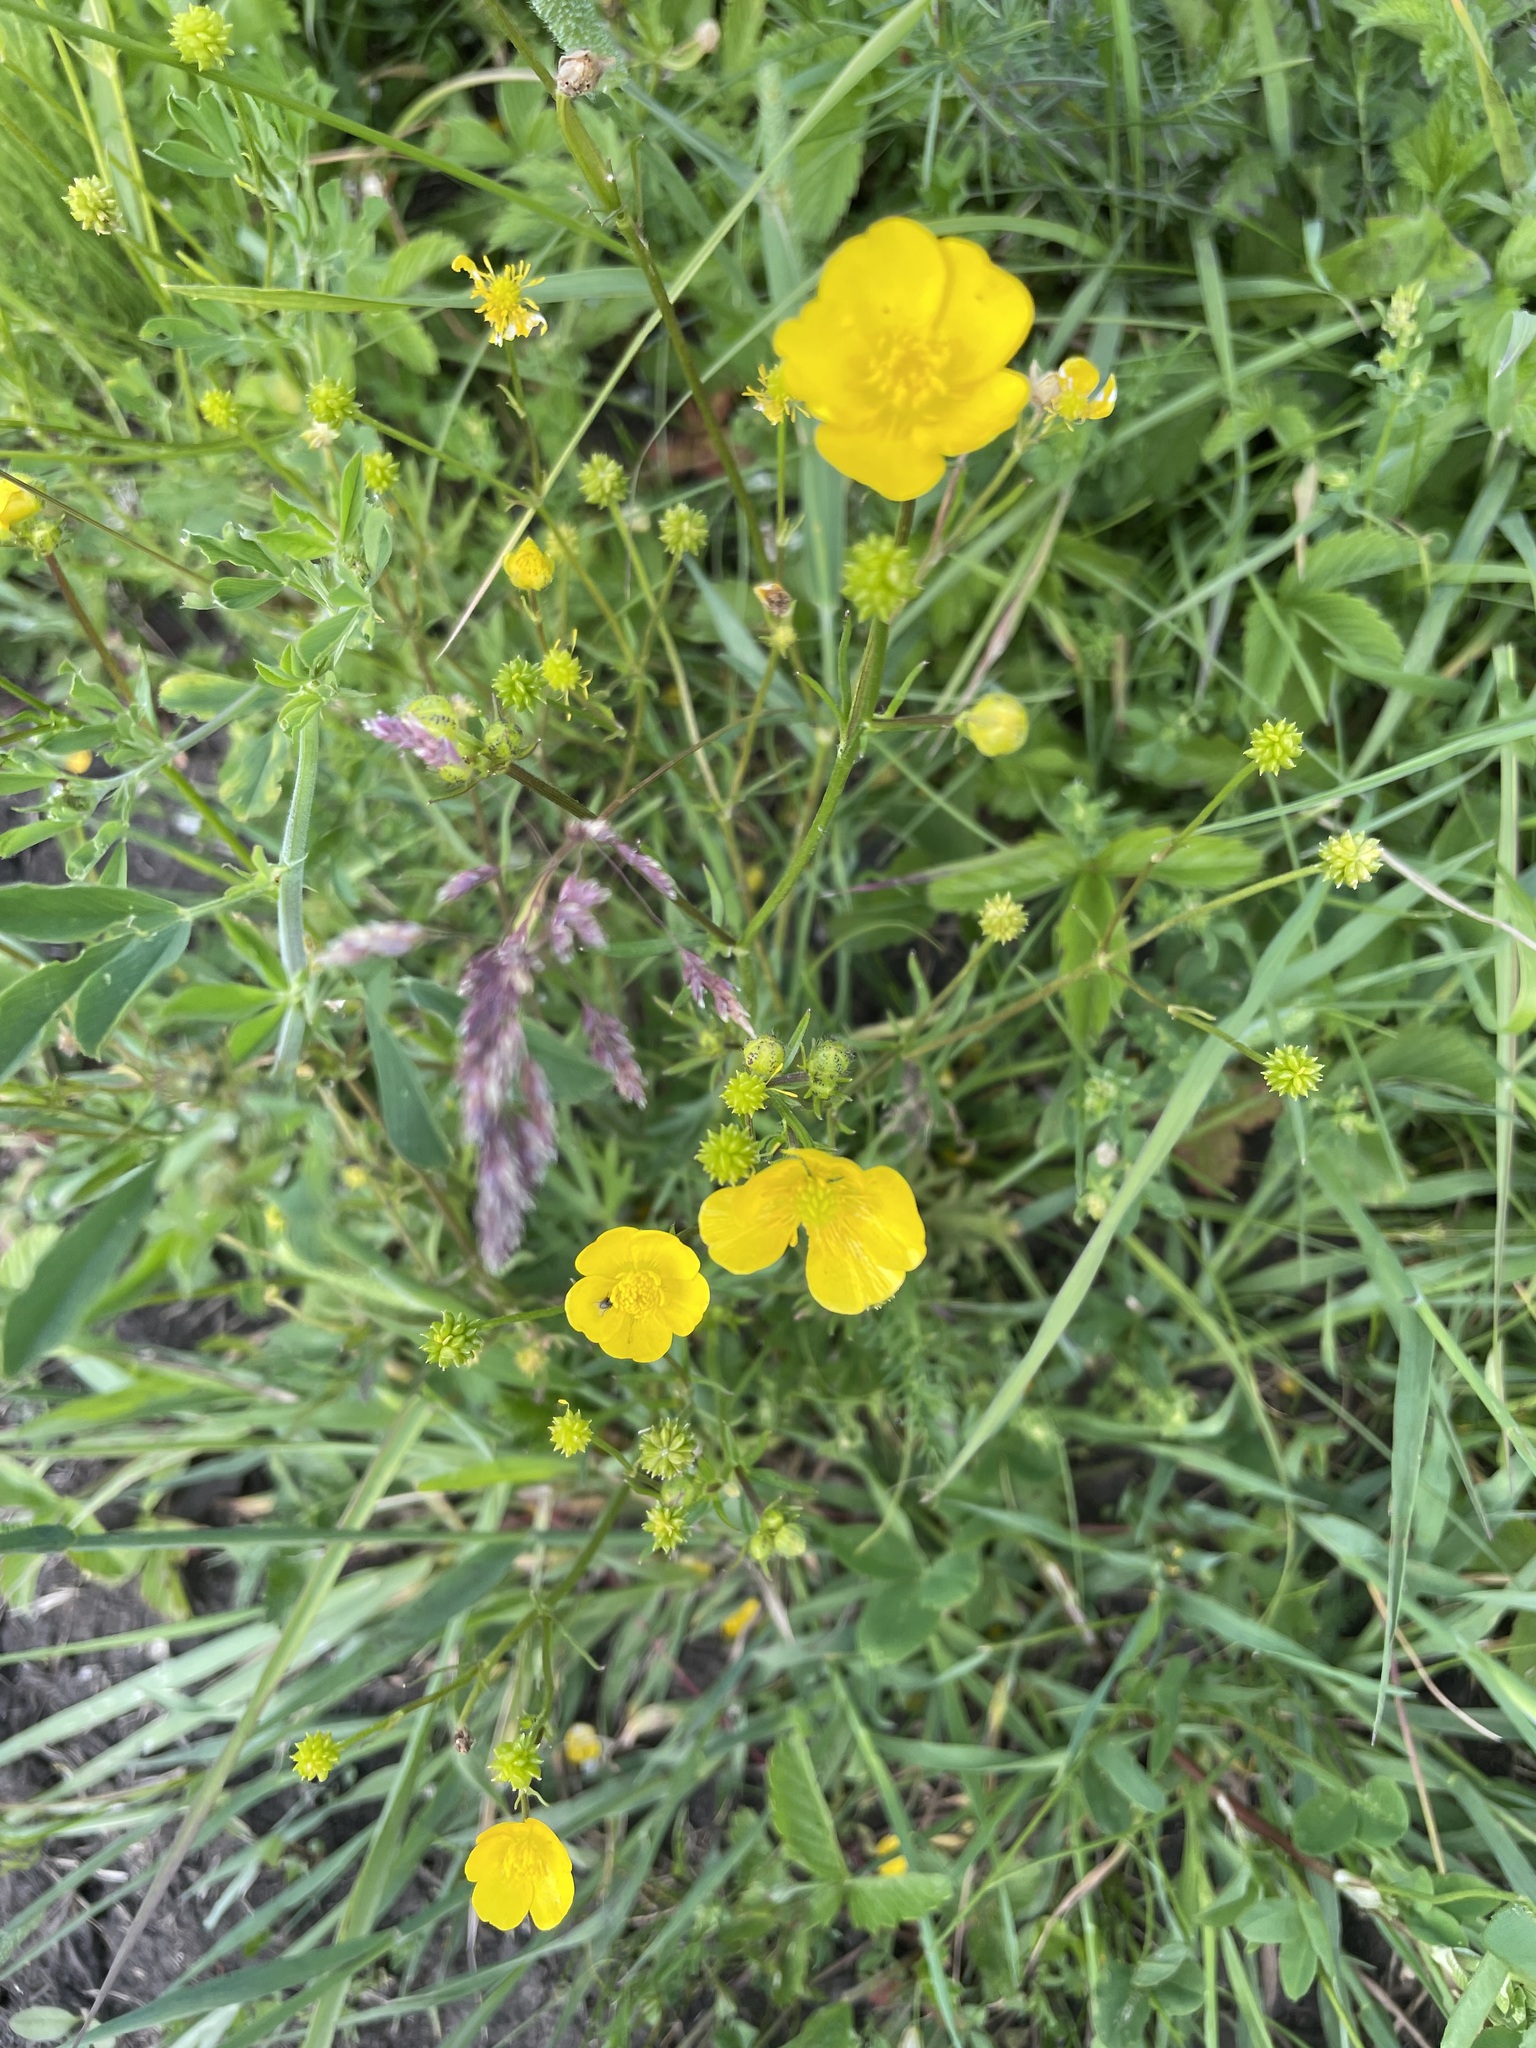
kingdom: Plantae
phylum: Tracheophyta
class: Magnoliopsida
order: Ranunculales
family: Ranunculaceae
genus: Ranunculus
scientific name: Ranunculus polyanthemos
